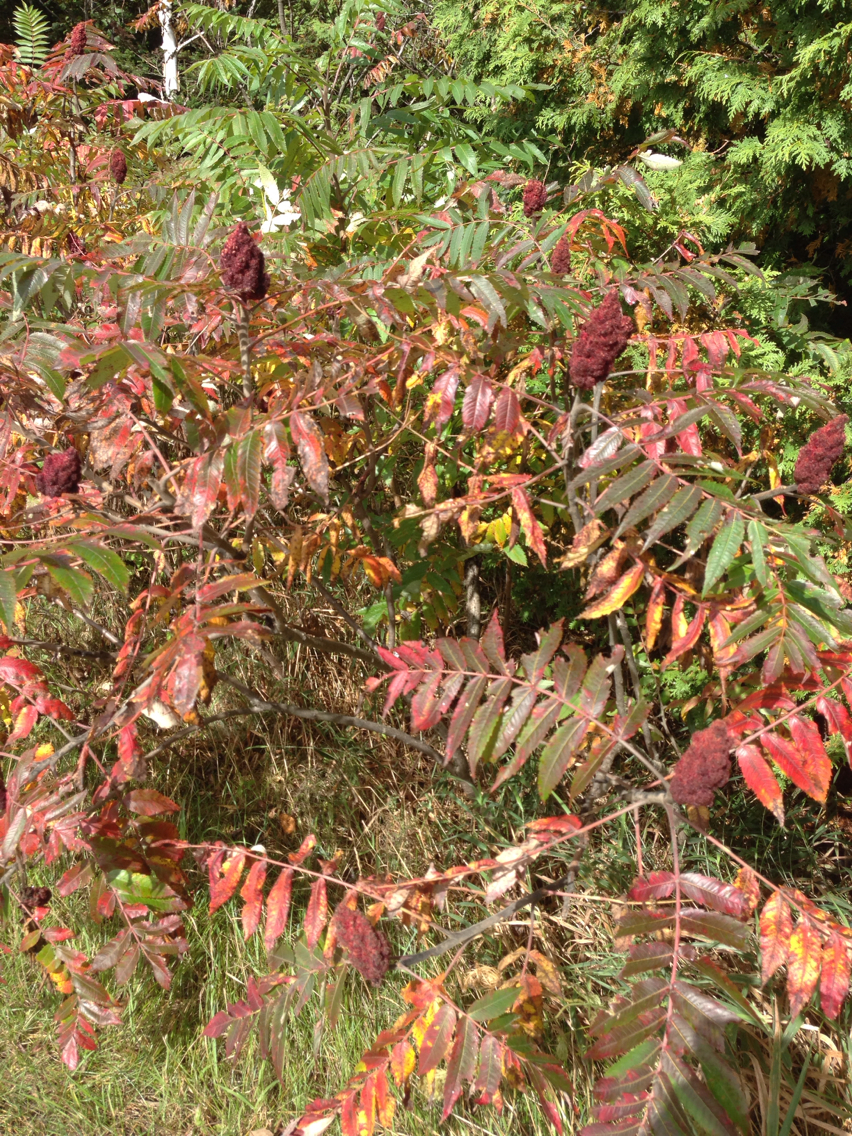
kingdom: Plantae
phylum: Tracheophyta
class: Magnoliopsida
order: Sapindales
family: Anacardiaceae
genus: Rhus
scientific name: Rhus typhina
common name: Staghorn sumac
